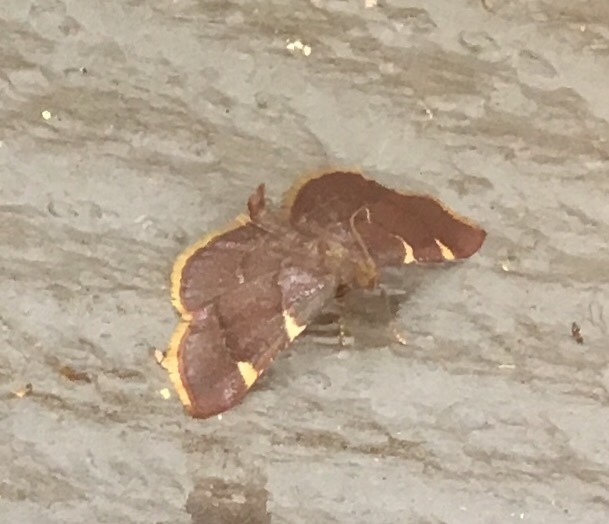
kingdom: Animalia
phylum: Arthropoda
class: Insecta
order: Lepidoptera
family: Pyralidae
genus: Hypsopygia
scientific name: Hypsopygia olinalis
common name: Yellow-fringed dolichomia moth
